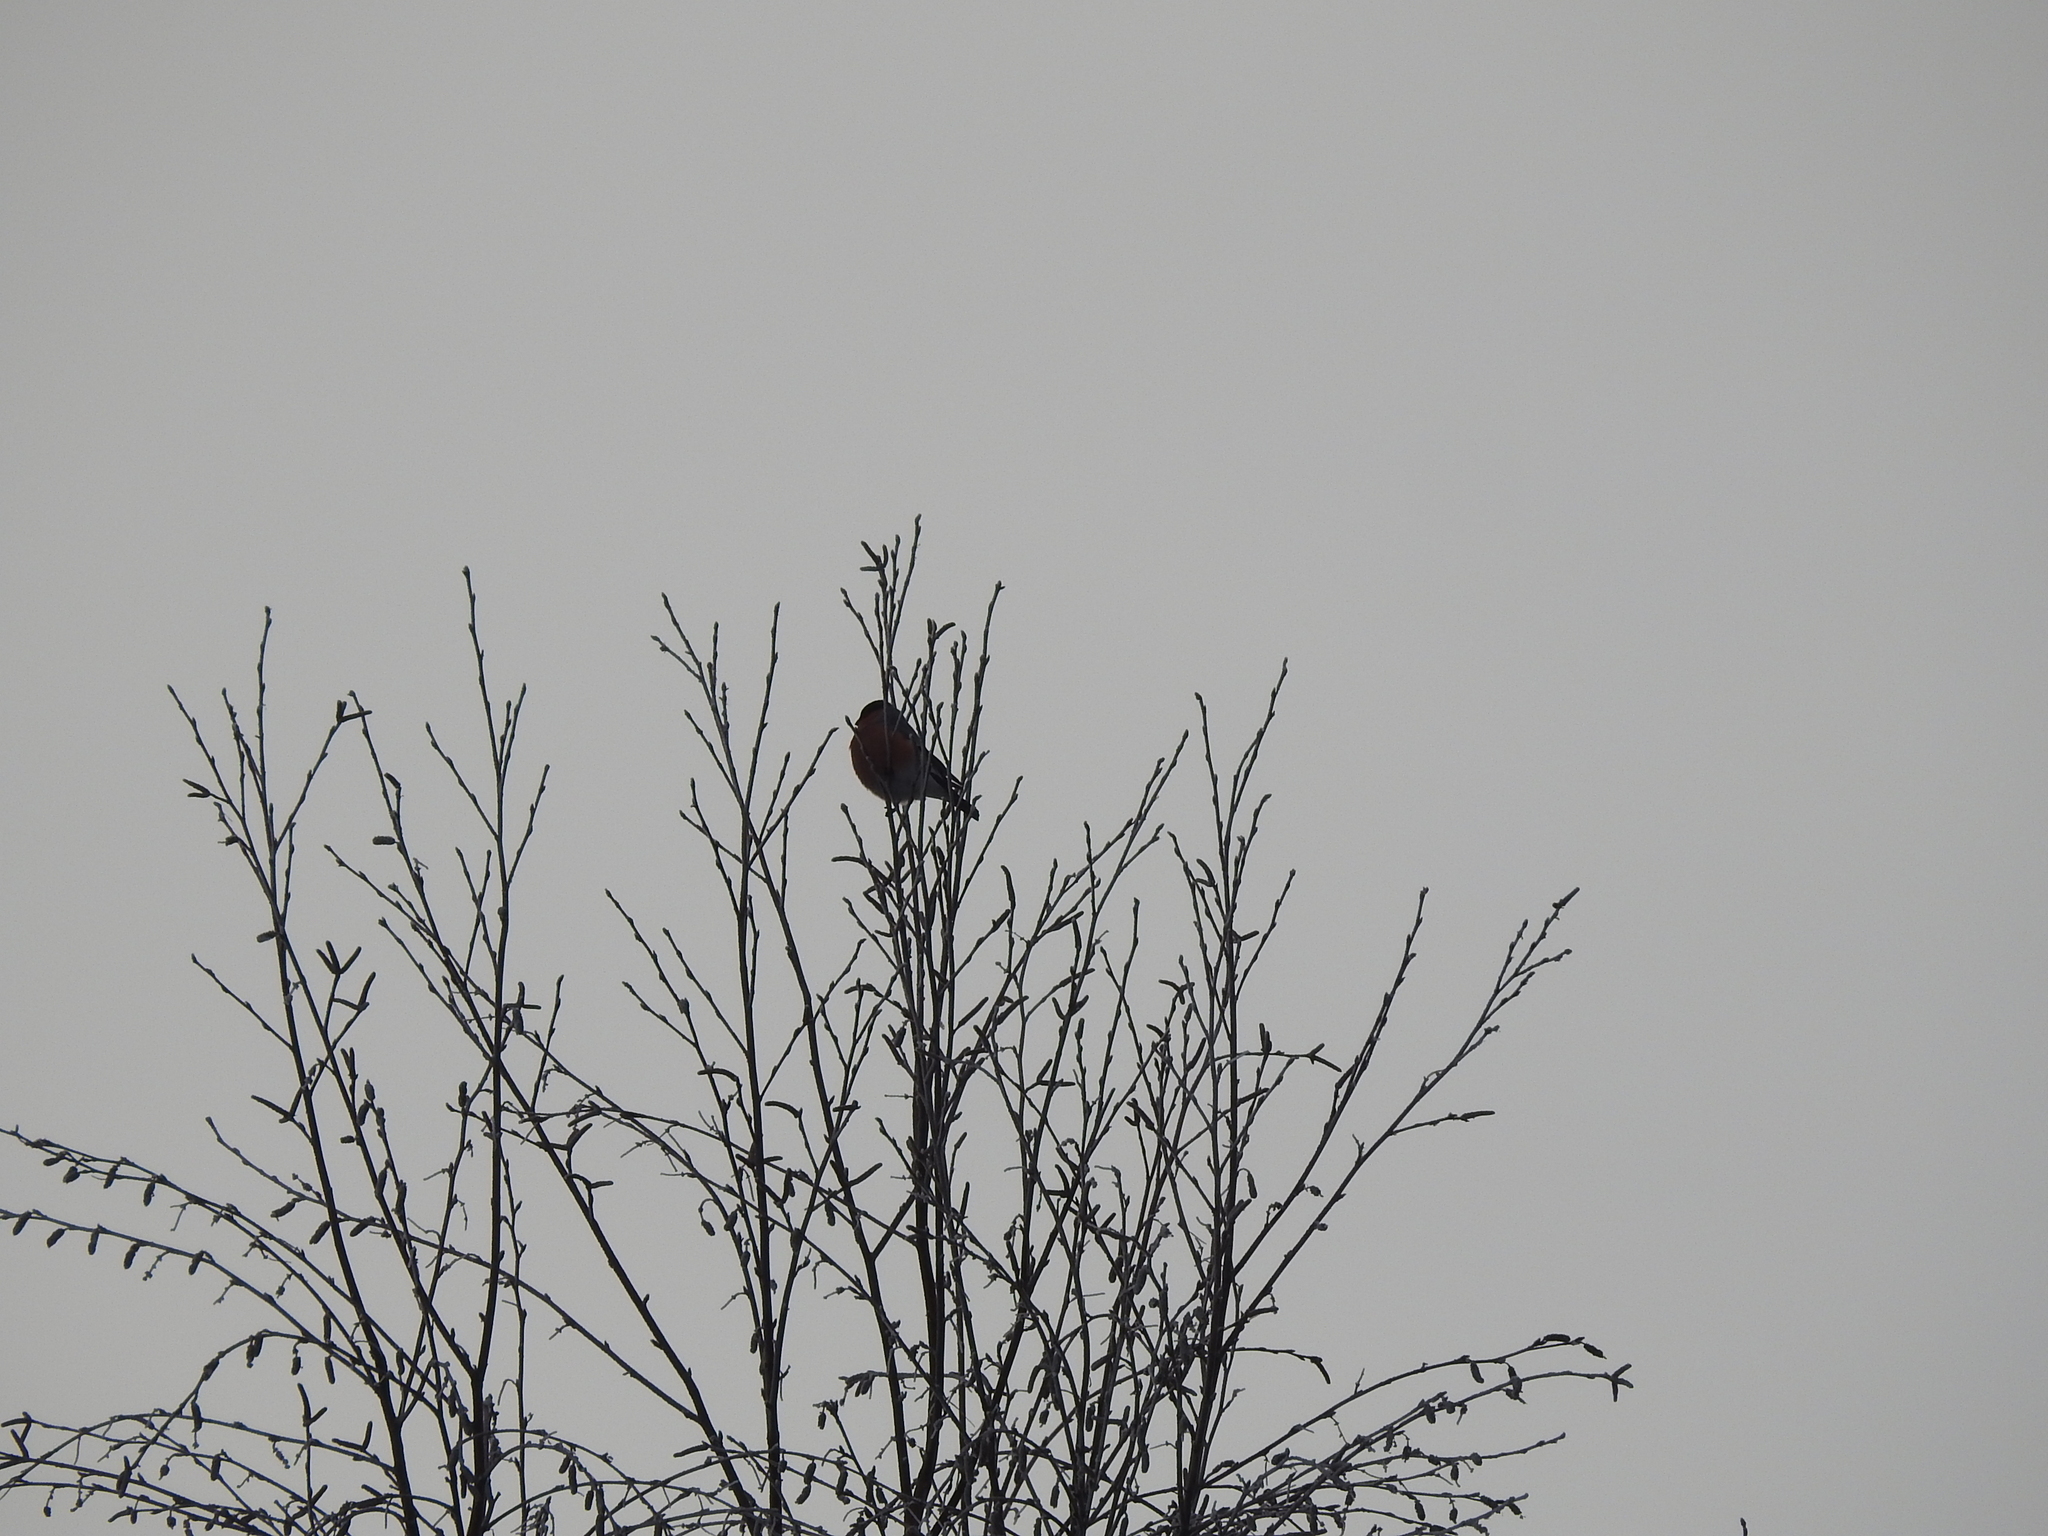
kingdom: Animalia
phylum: Chordata
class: Aves
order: Passeriformes
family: Fringillidae
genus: Pyrrhula
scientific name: Pyrrhula pyrrhula
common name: Eurasian bullfinch
